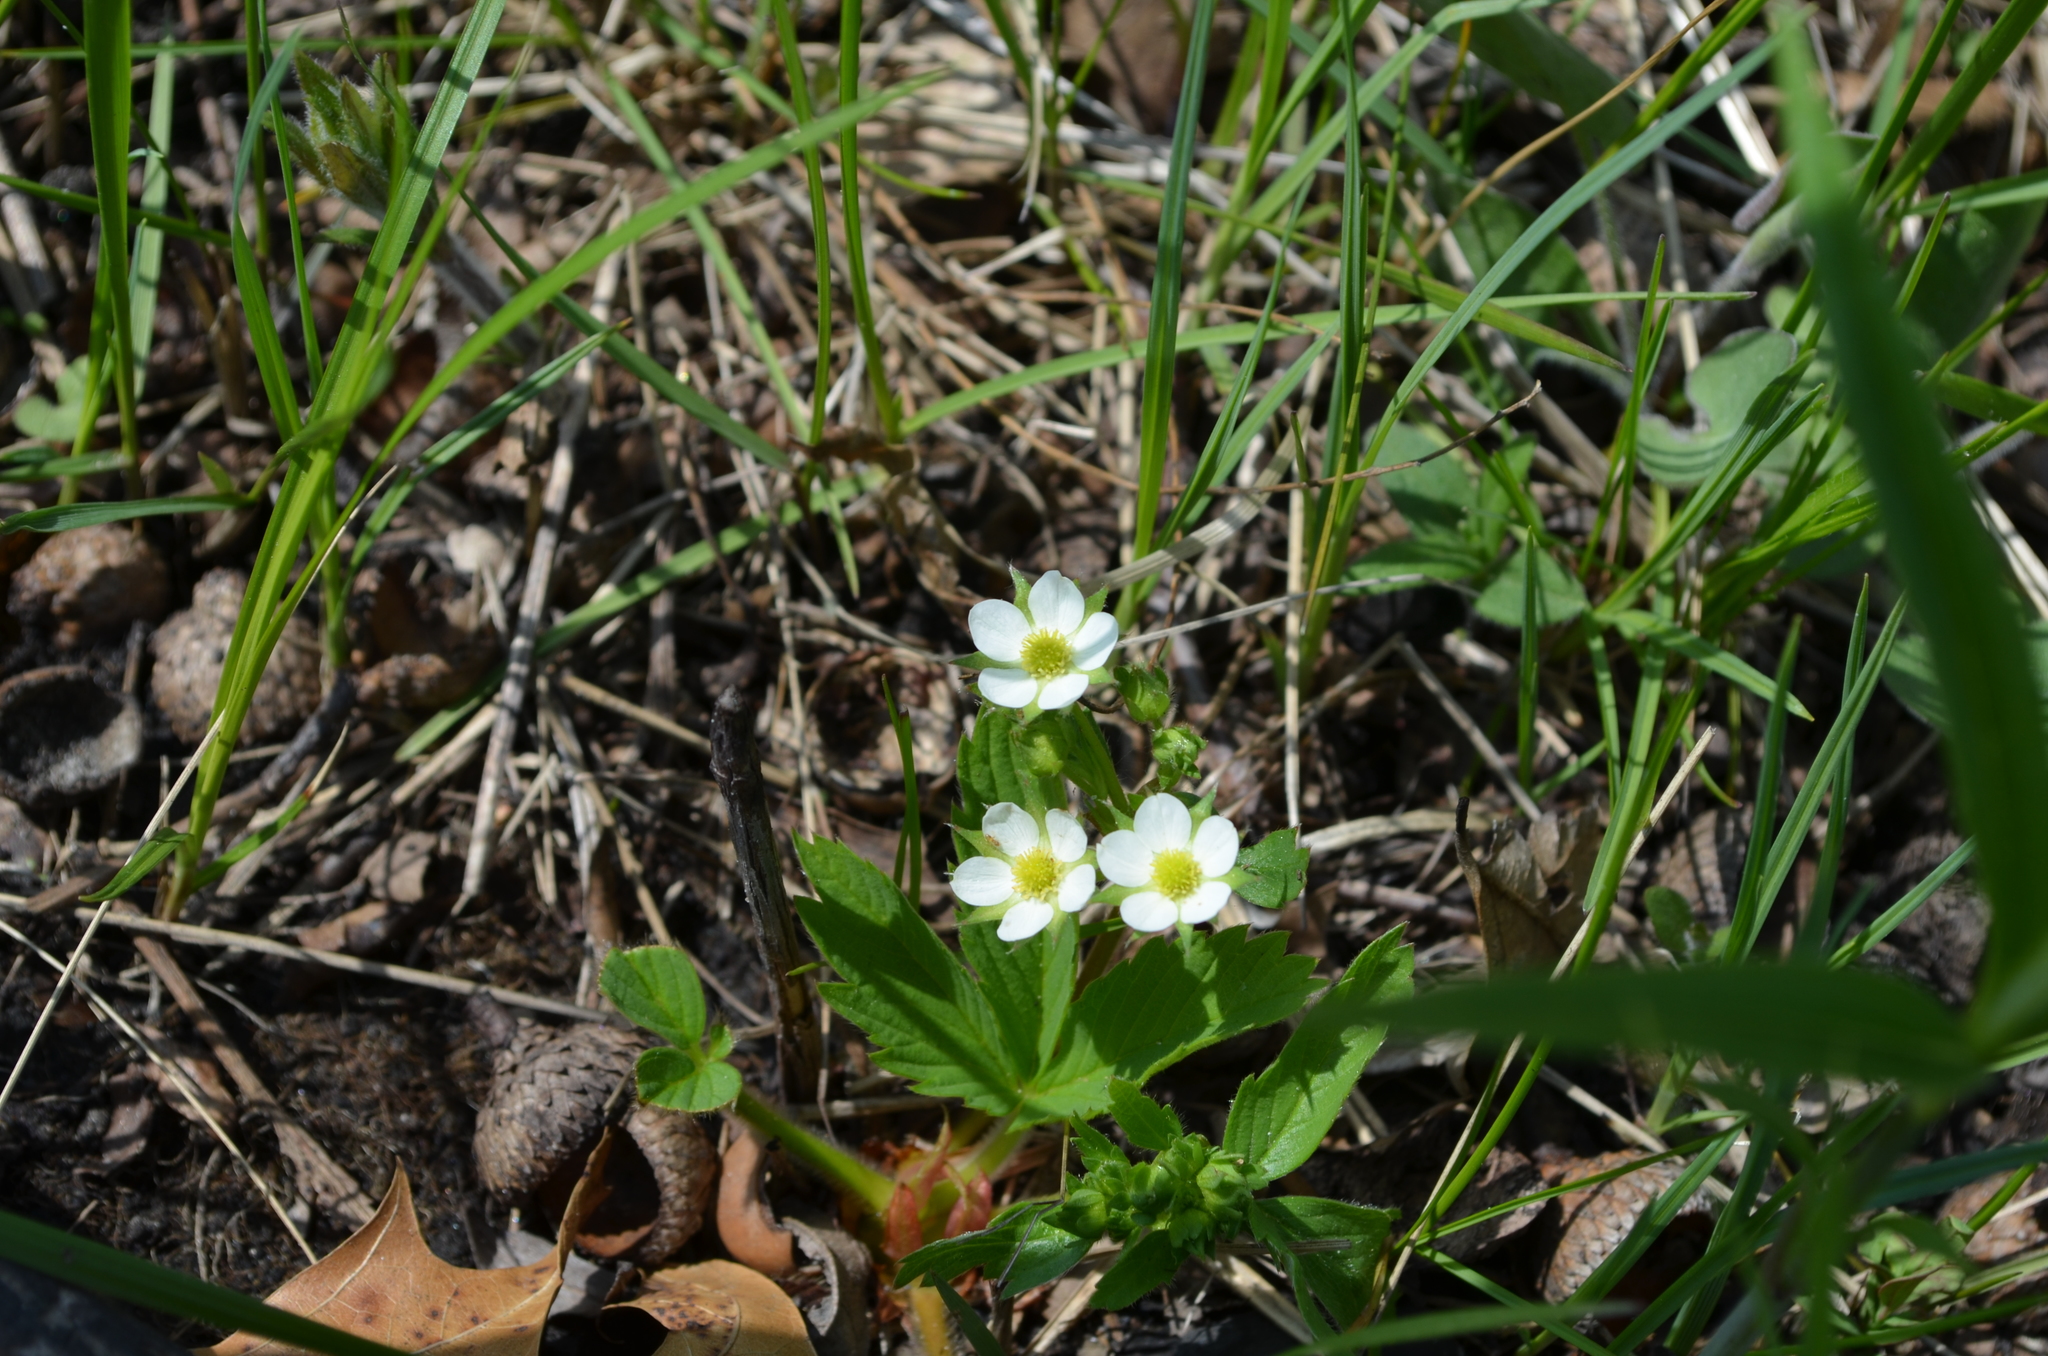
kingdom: Plantae
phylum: Tracheophyta
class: Magnoliopsida
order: Rosales
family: Rosaceae
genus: Fragaria
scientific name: Fragaria virginiana
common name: Thickleaved wild strawberry
